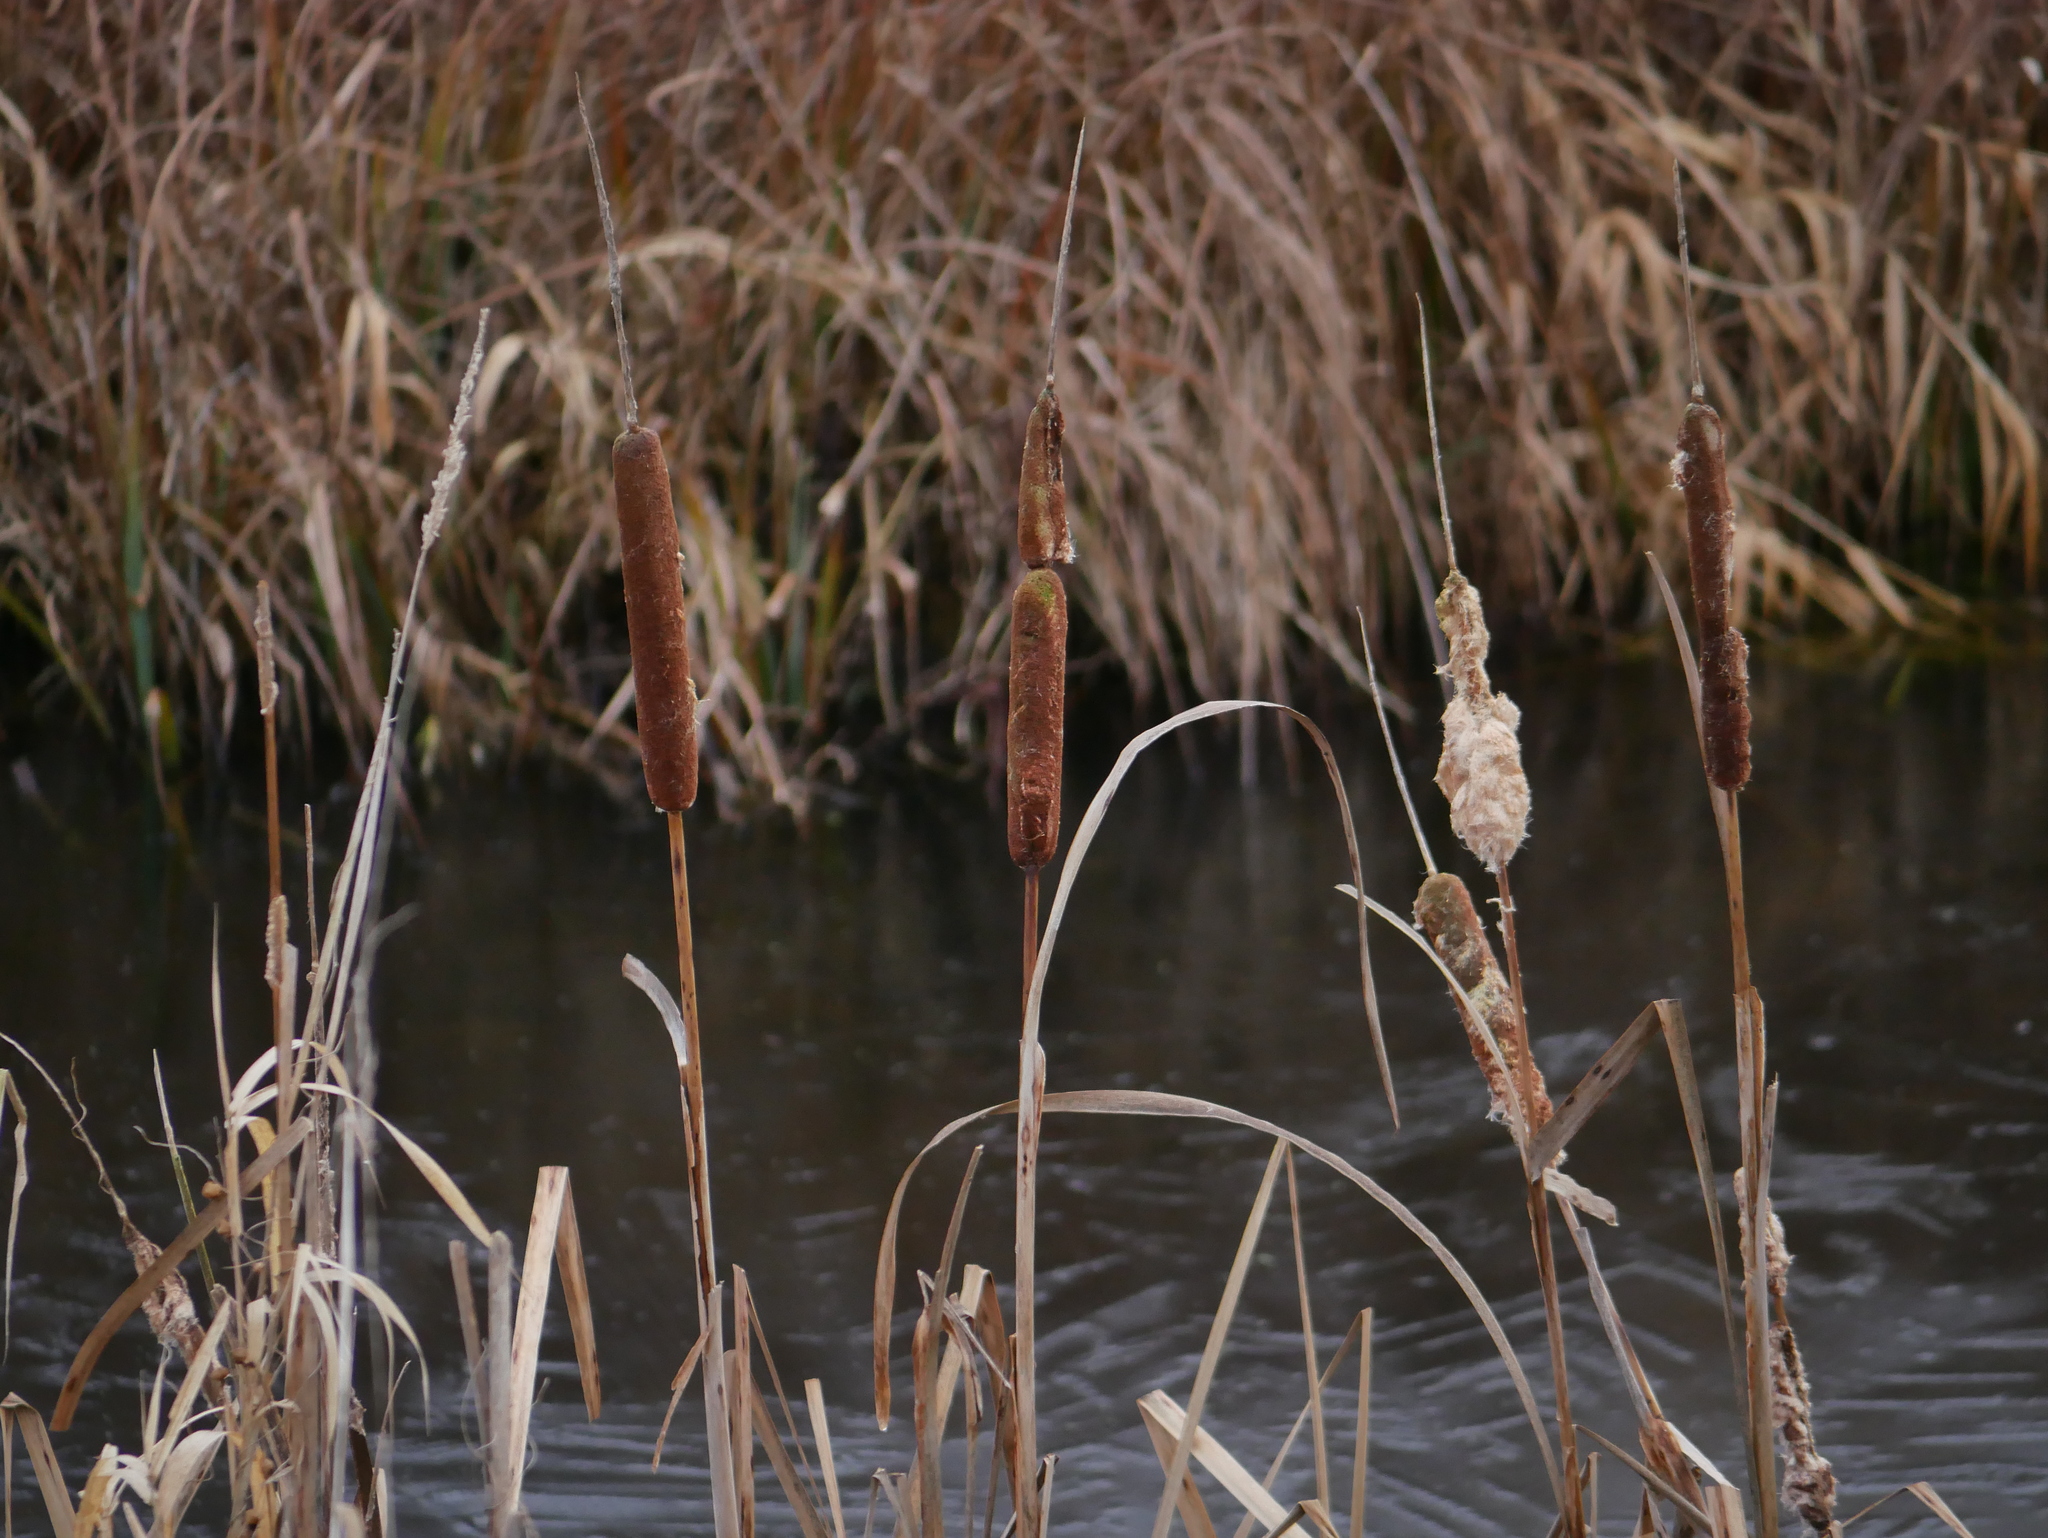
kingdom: Plantae
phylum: Tracheophyta
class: Liliopsida
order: Poales
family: Typhaceae
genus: Typha
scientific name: Typha latifolia
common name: Broadleaf cattail
